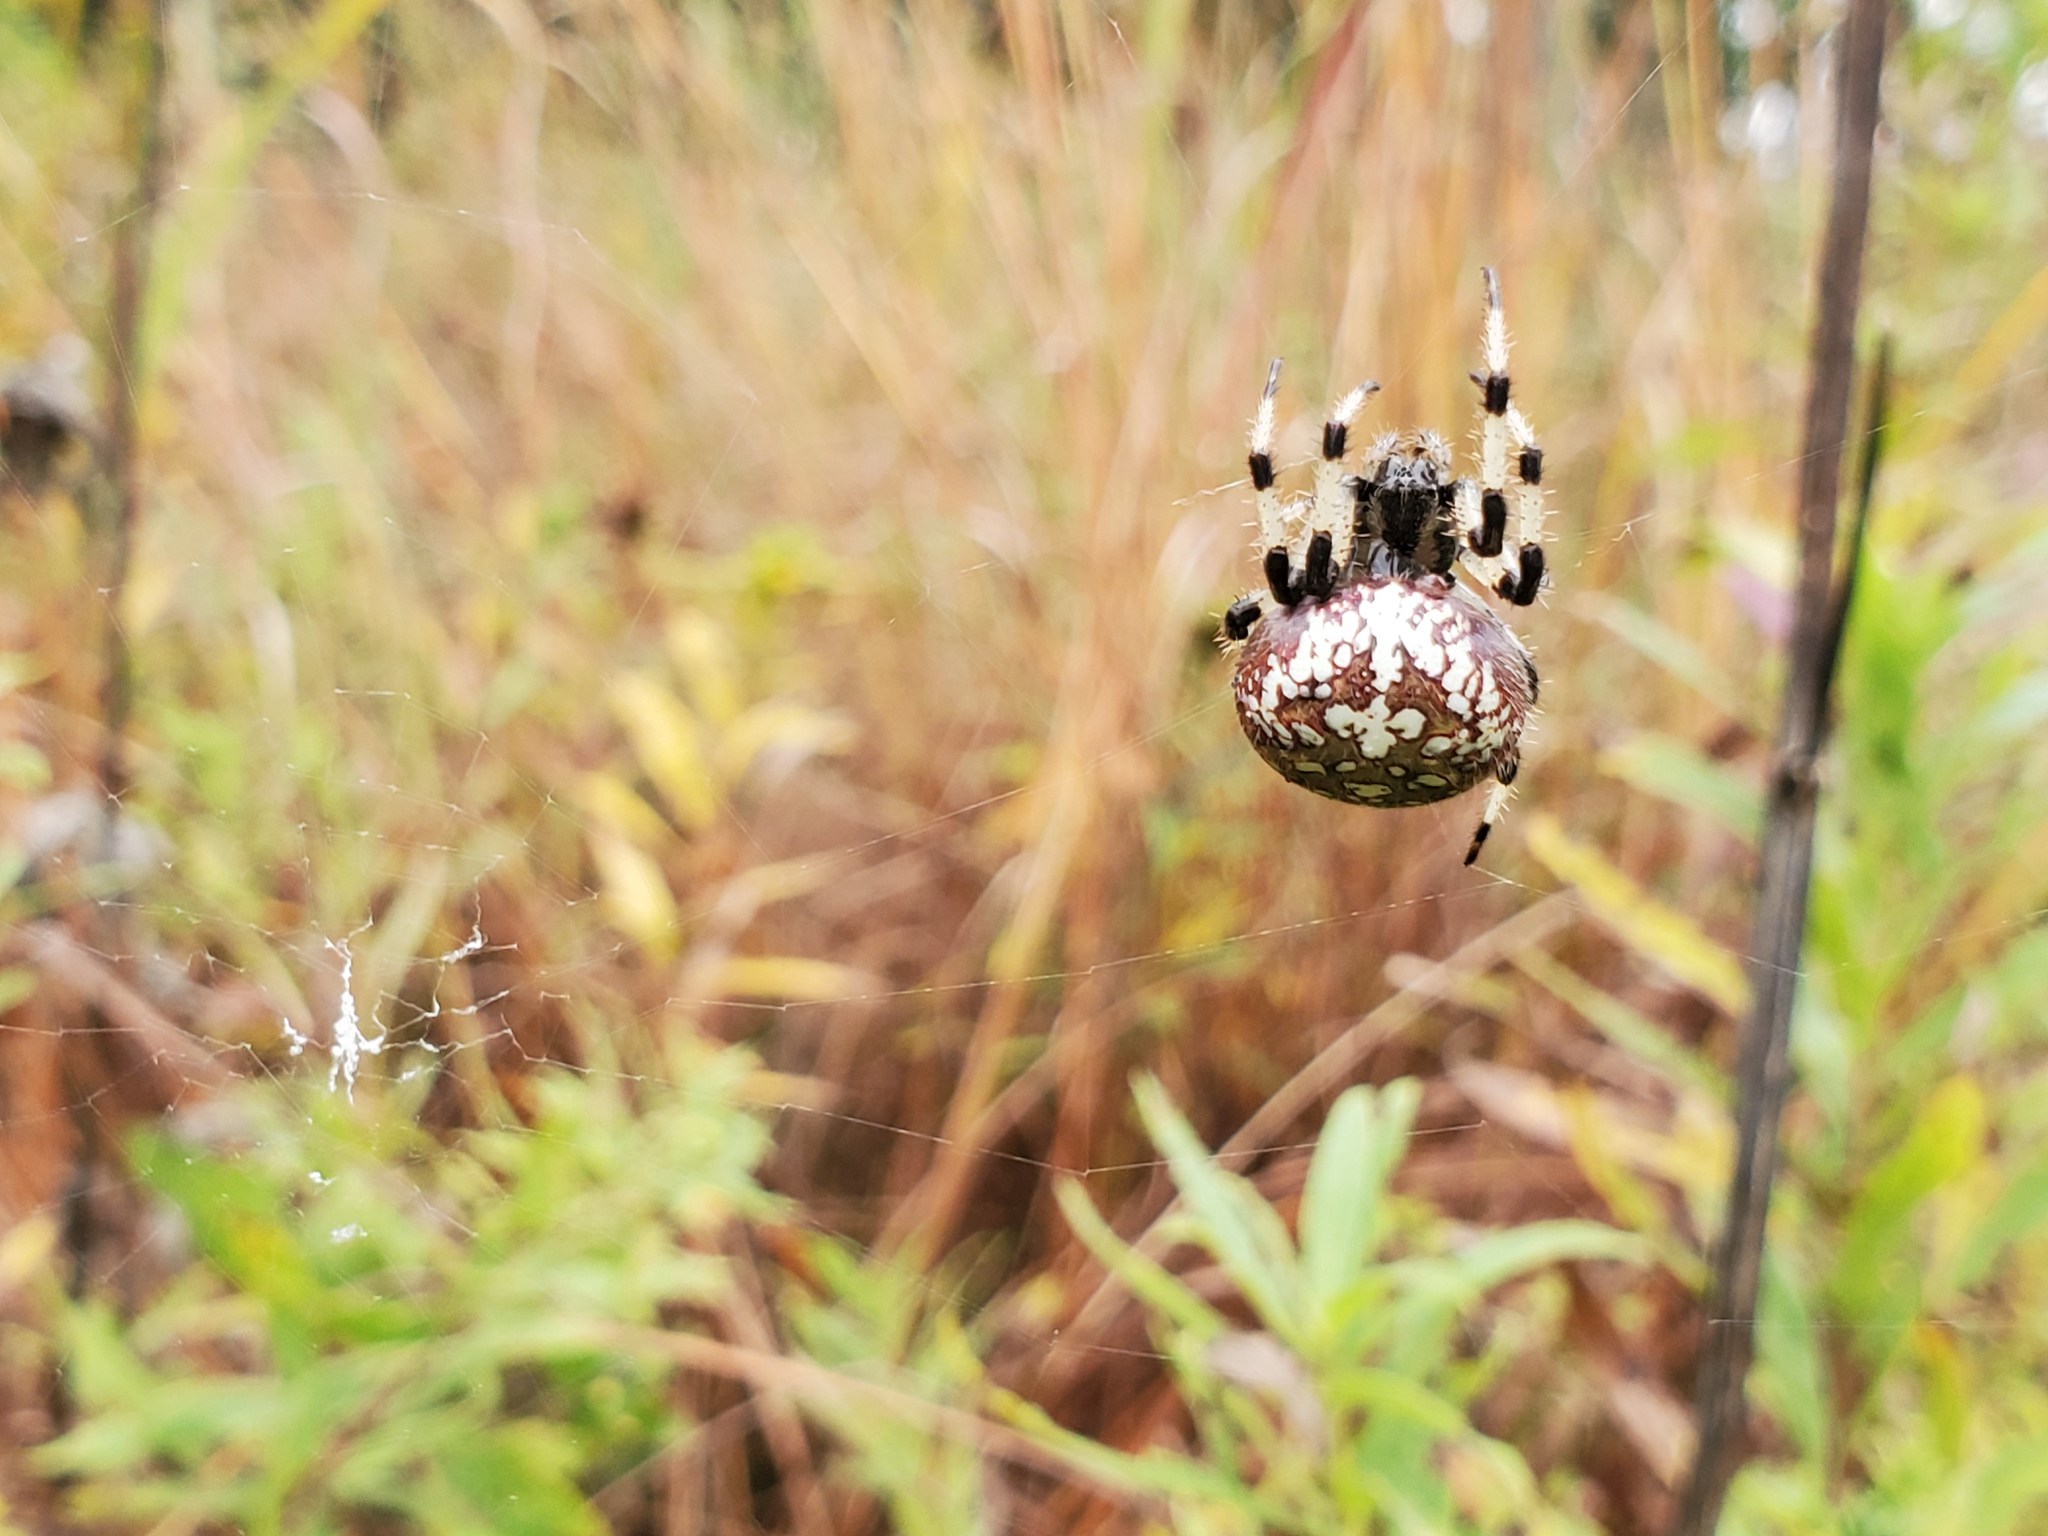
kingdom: Animalia
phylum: Arthropoda
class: Arachnida
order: Araneae
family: Araneidae
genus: Araneus
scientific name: Araneus trifolium
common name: Shamrock orbweaver
